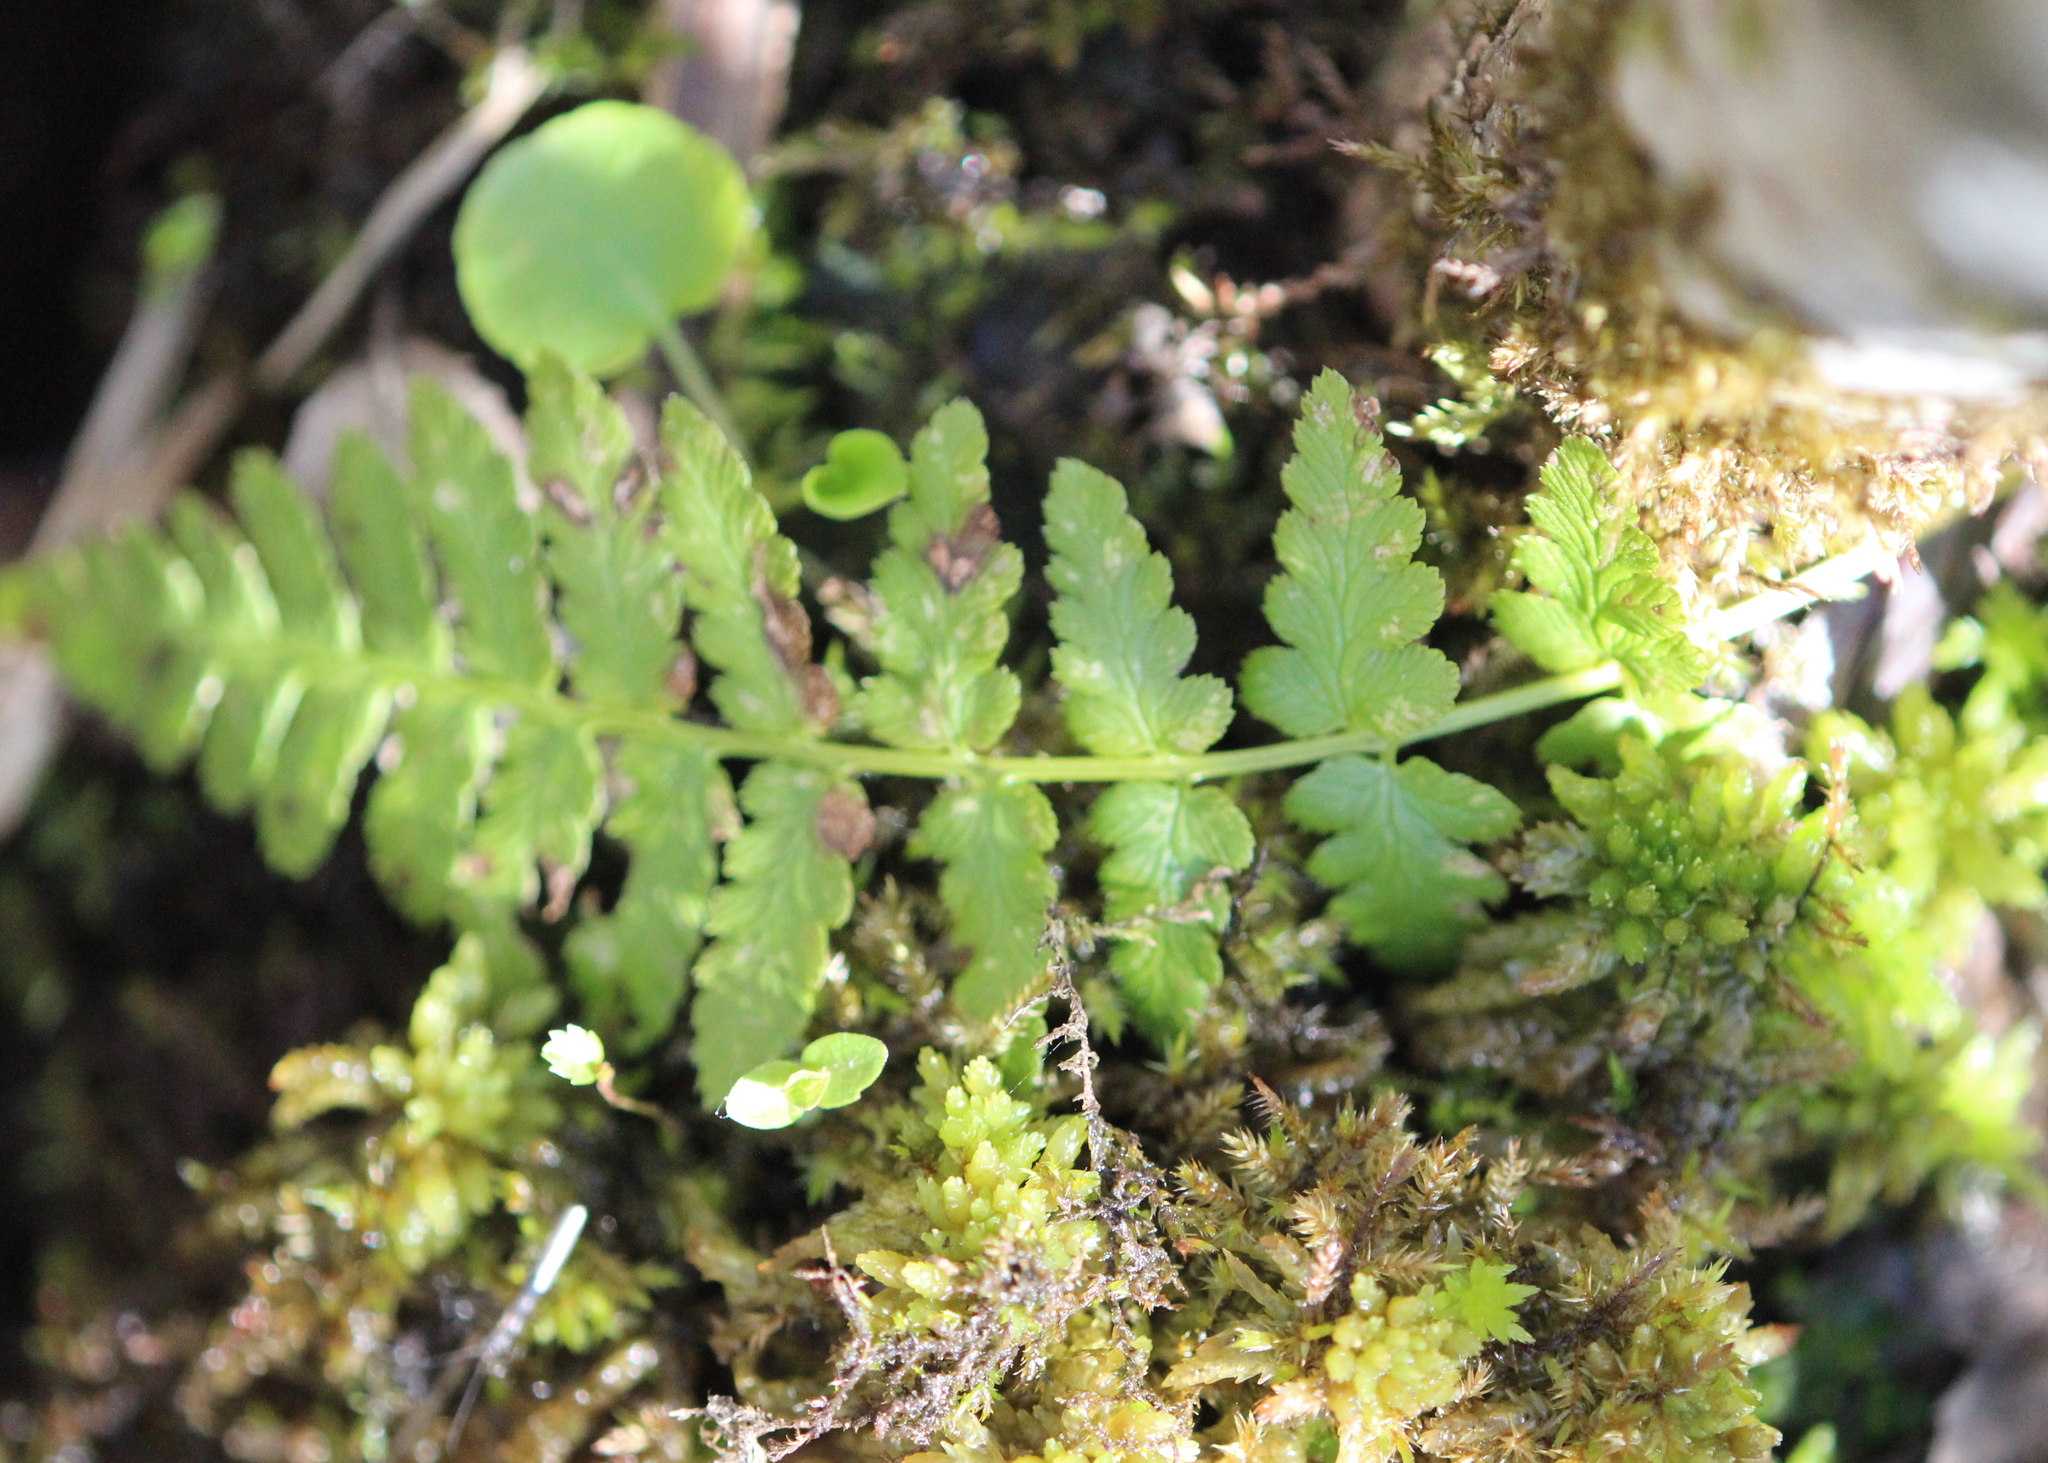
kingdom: Plantae
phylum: Tracheophyta
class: Polypodiopsida
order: Polypodiales
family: Dryopteridaceae
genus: Dryopteris
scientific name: Dryopteris cristata
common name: Crested wood fern
